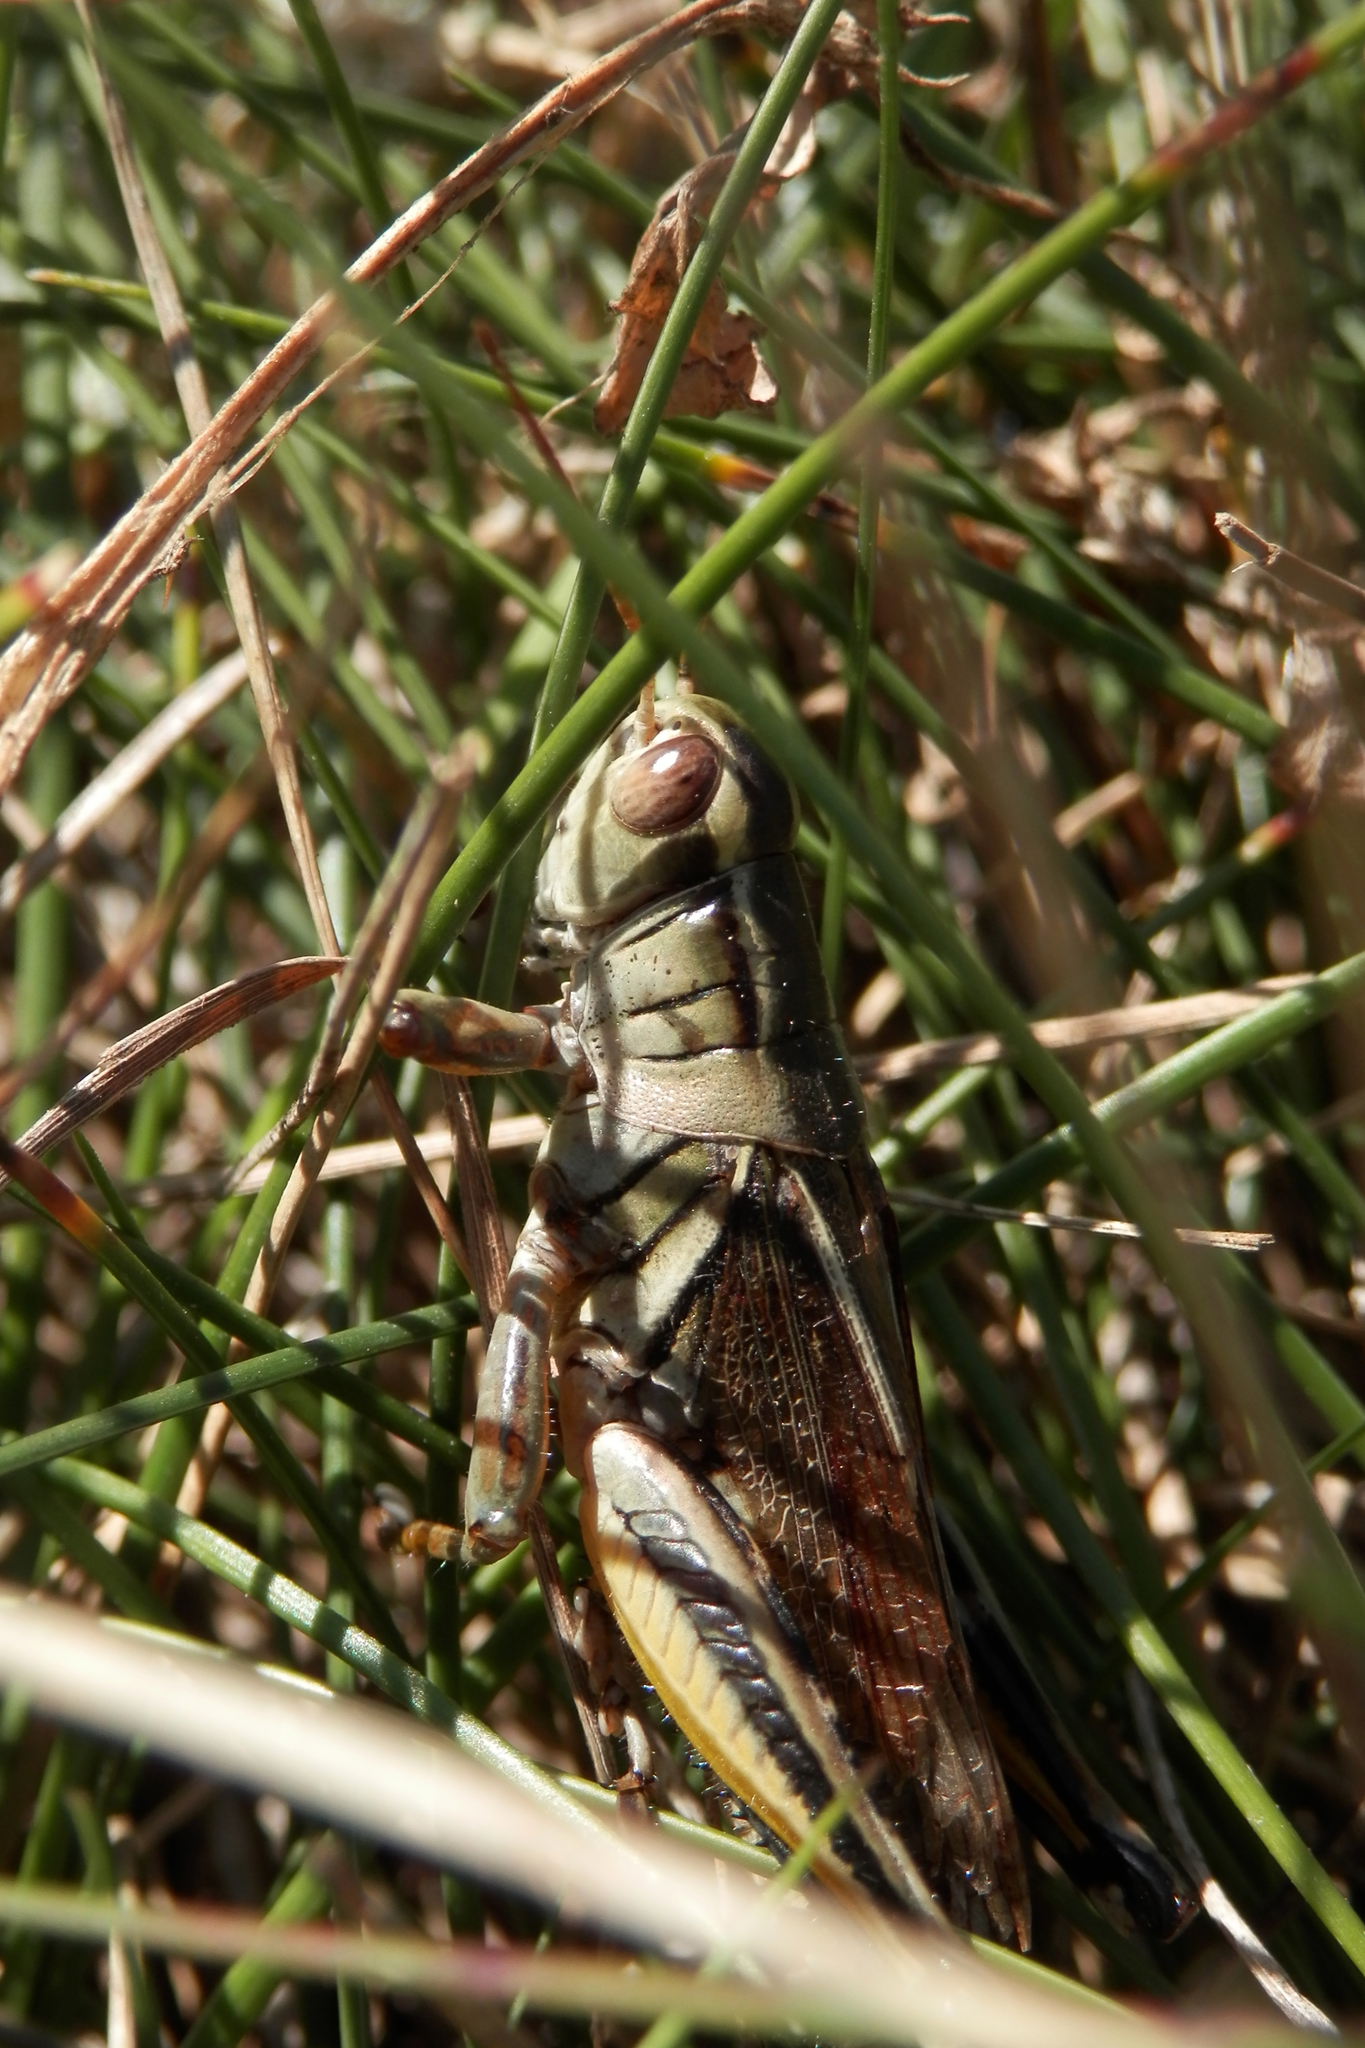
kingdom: Animalia
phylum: Arthropoda
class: Insecta
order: Orthoptera
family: Acrididae
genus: Melanoplus
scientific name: Melanoplus bivittatus
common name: Two-striped grasshopper
